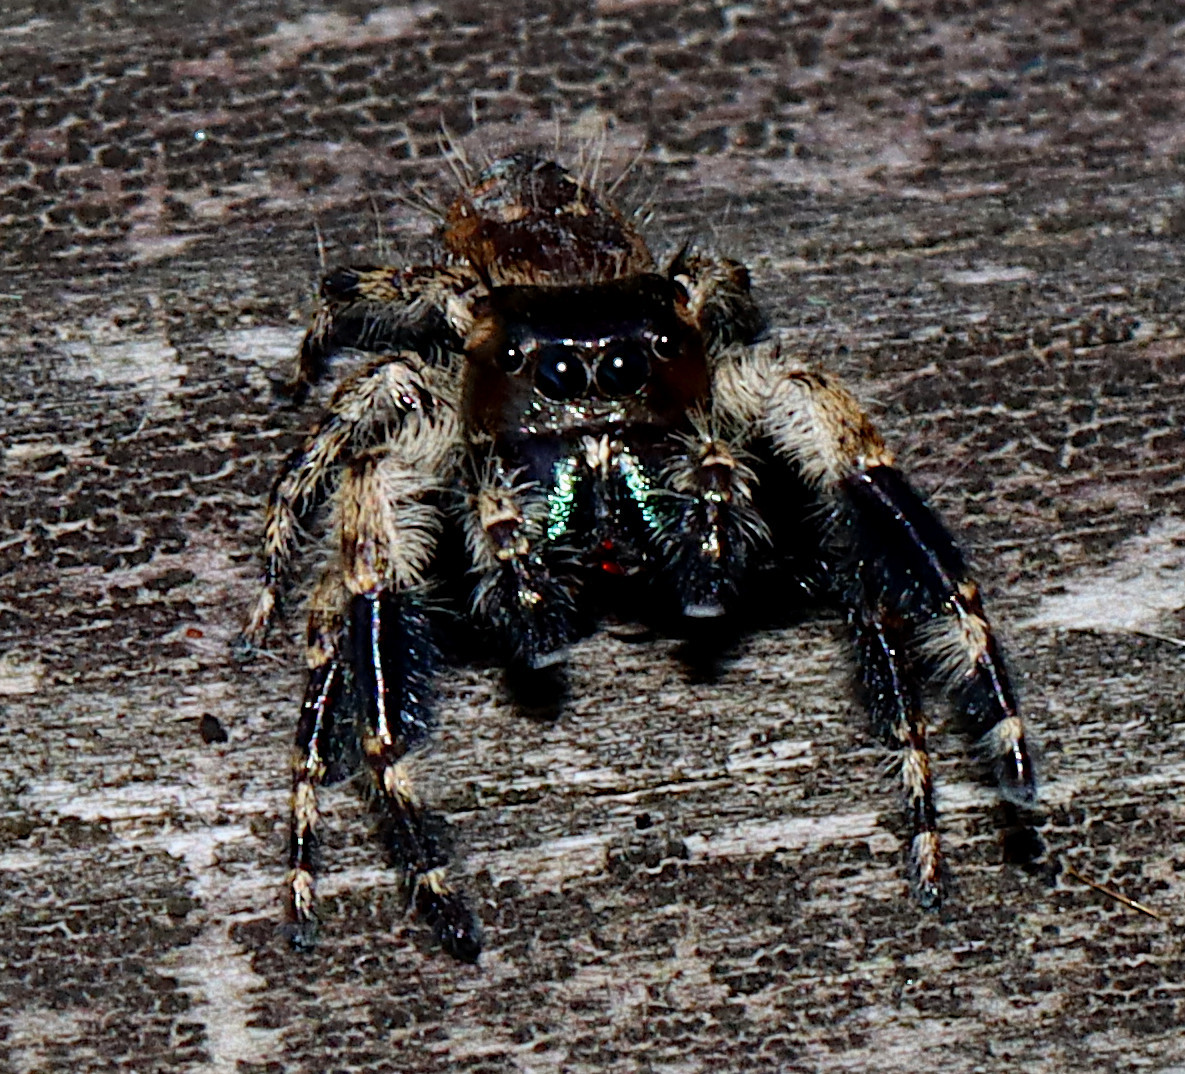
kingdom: Animalia
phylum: Arthropoda
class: Arachnida
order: Araneae
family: Salticidae
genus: Phidippus
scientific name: Phidippus otiosus
